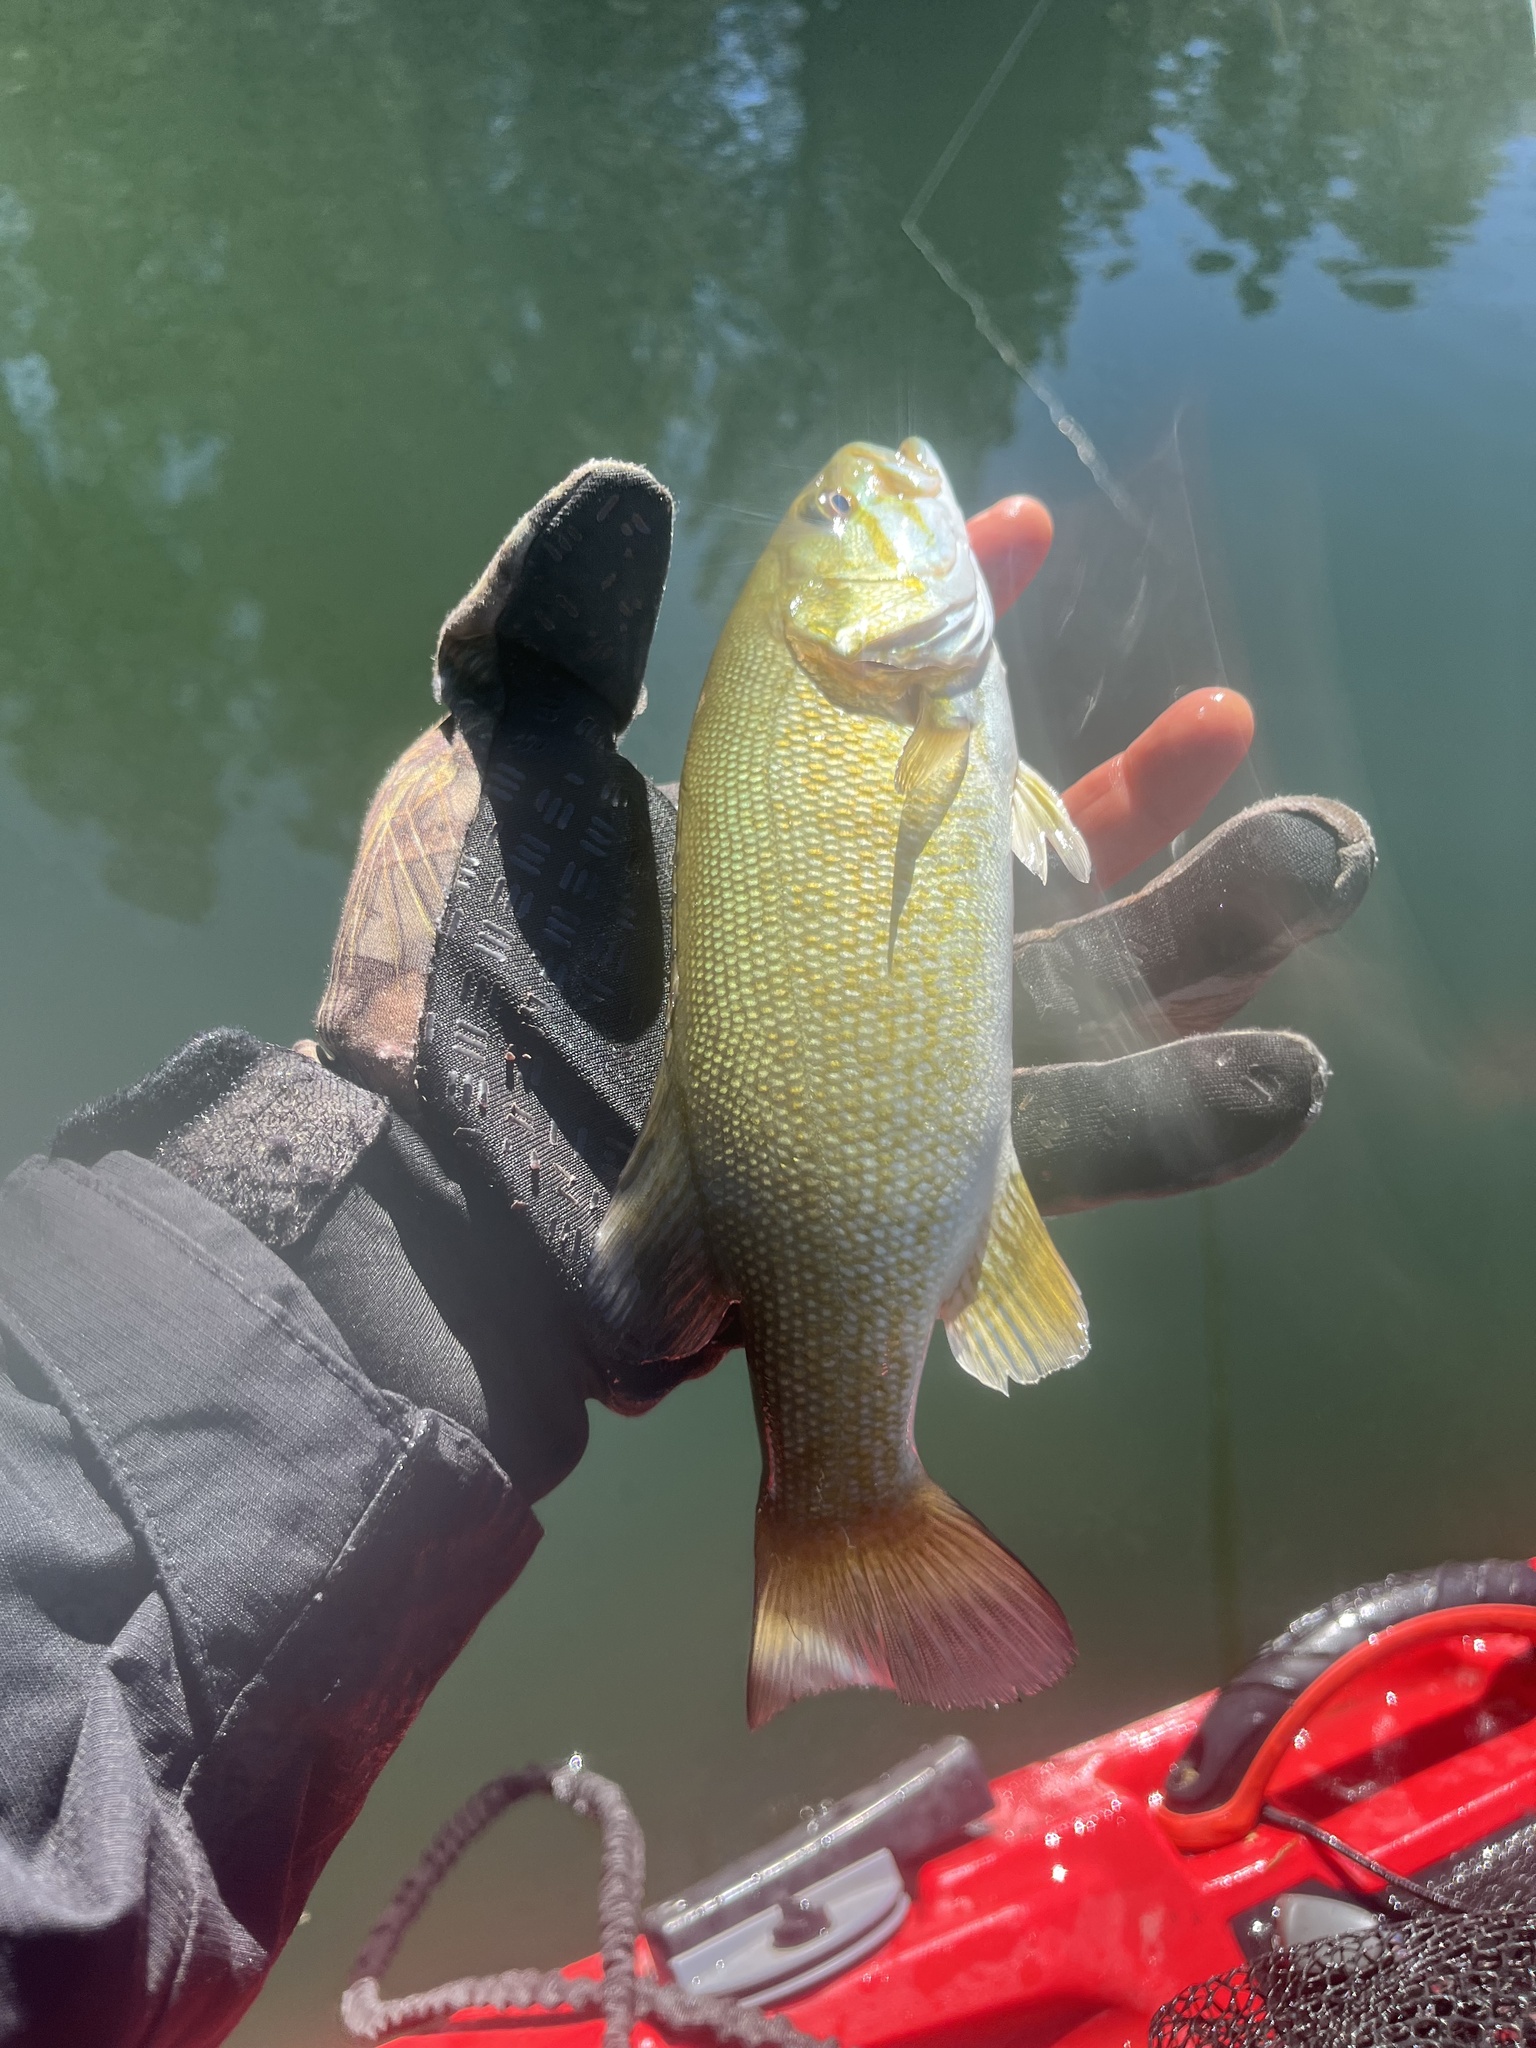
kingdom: Animalia
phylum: Chordata
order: Perciformes
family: Centrarchidae
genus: Micropterus
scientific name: Micropterus dolomieu
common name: Smallmouth bass
